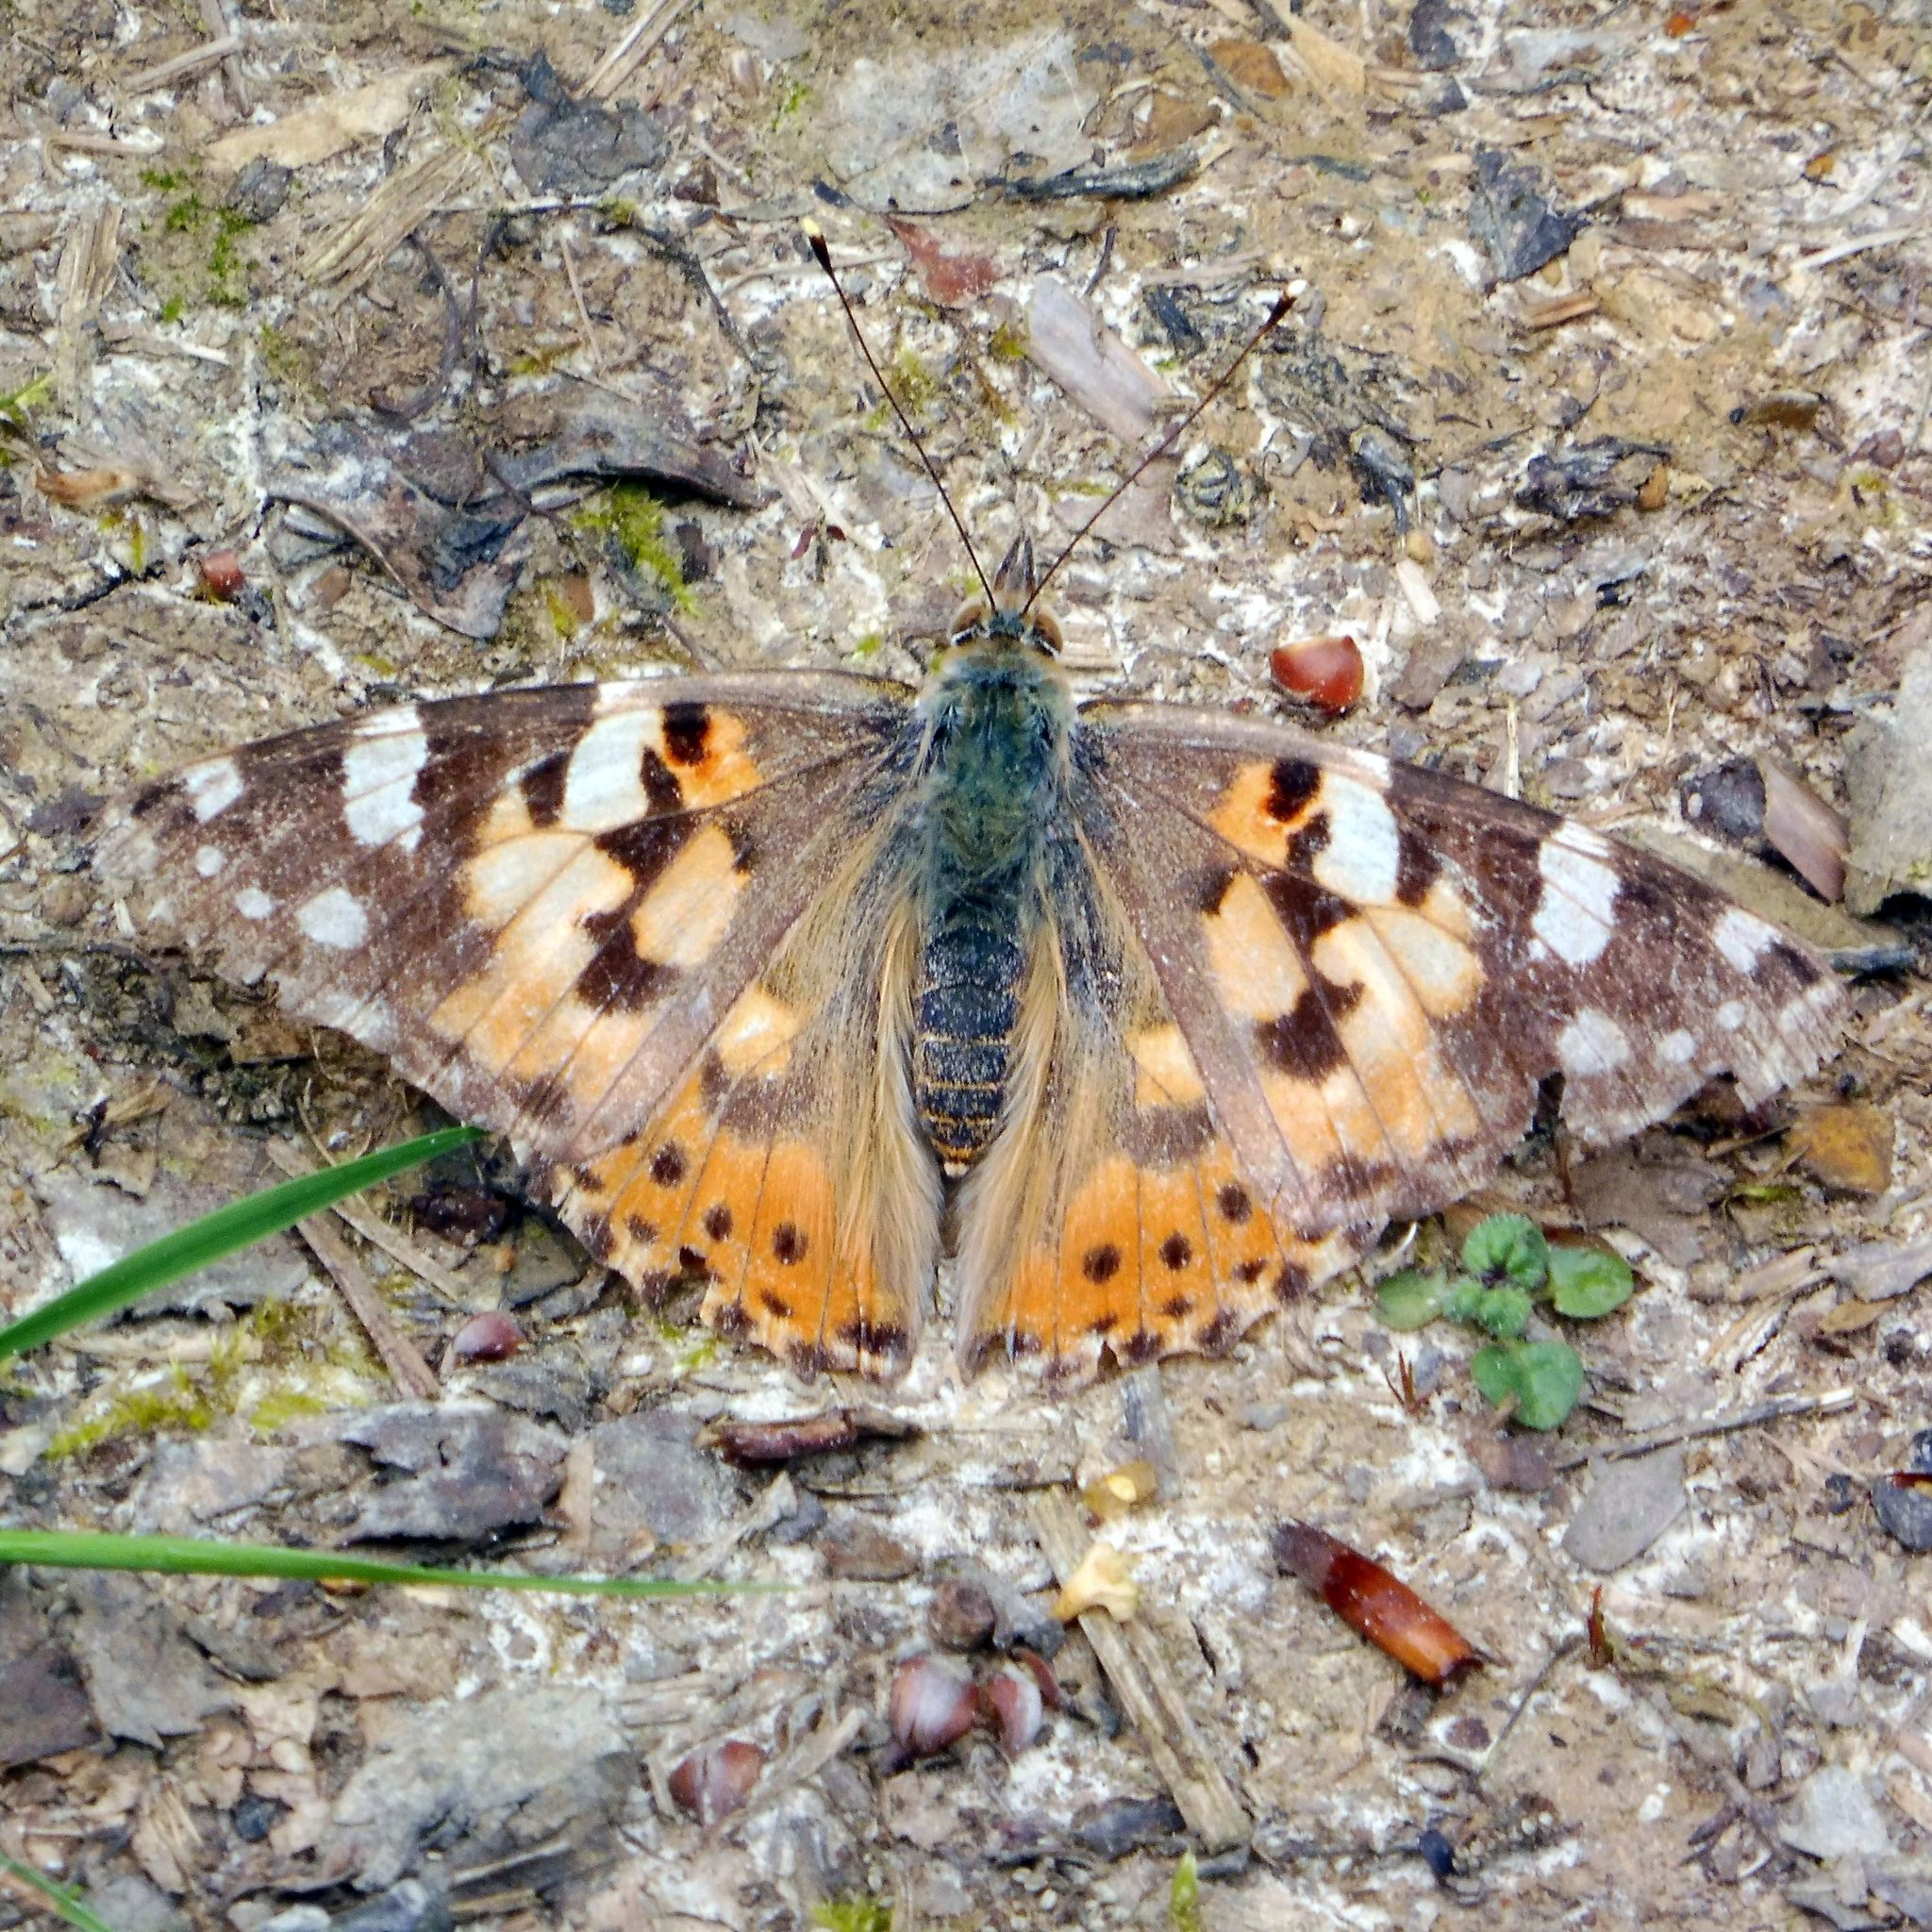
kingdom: Animalia
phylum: Arthropoda
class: Insecta
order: Lepidoptera
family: Nymphalidae
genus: Vanessa
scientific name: Vanessa cardui
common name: Painted lady
